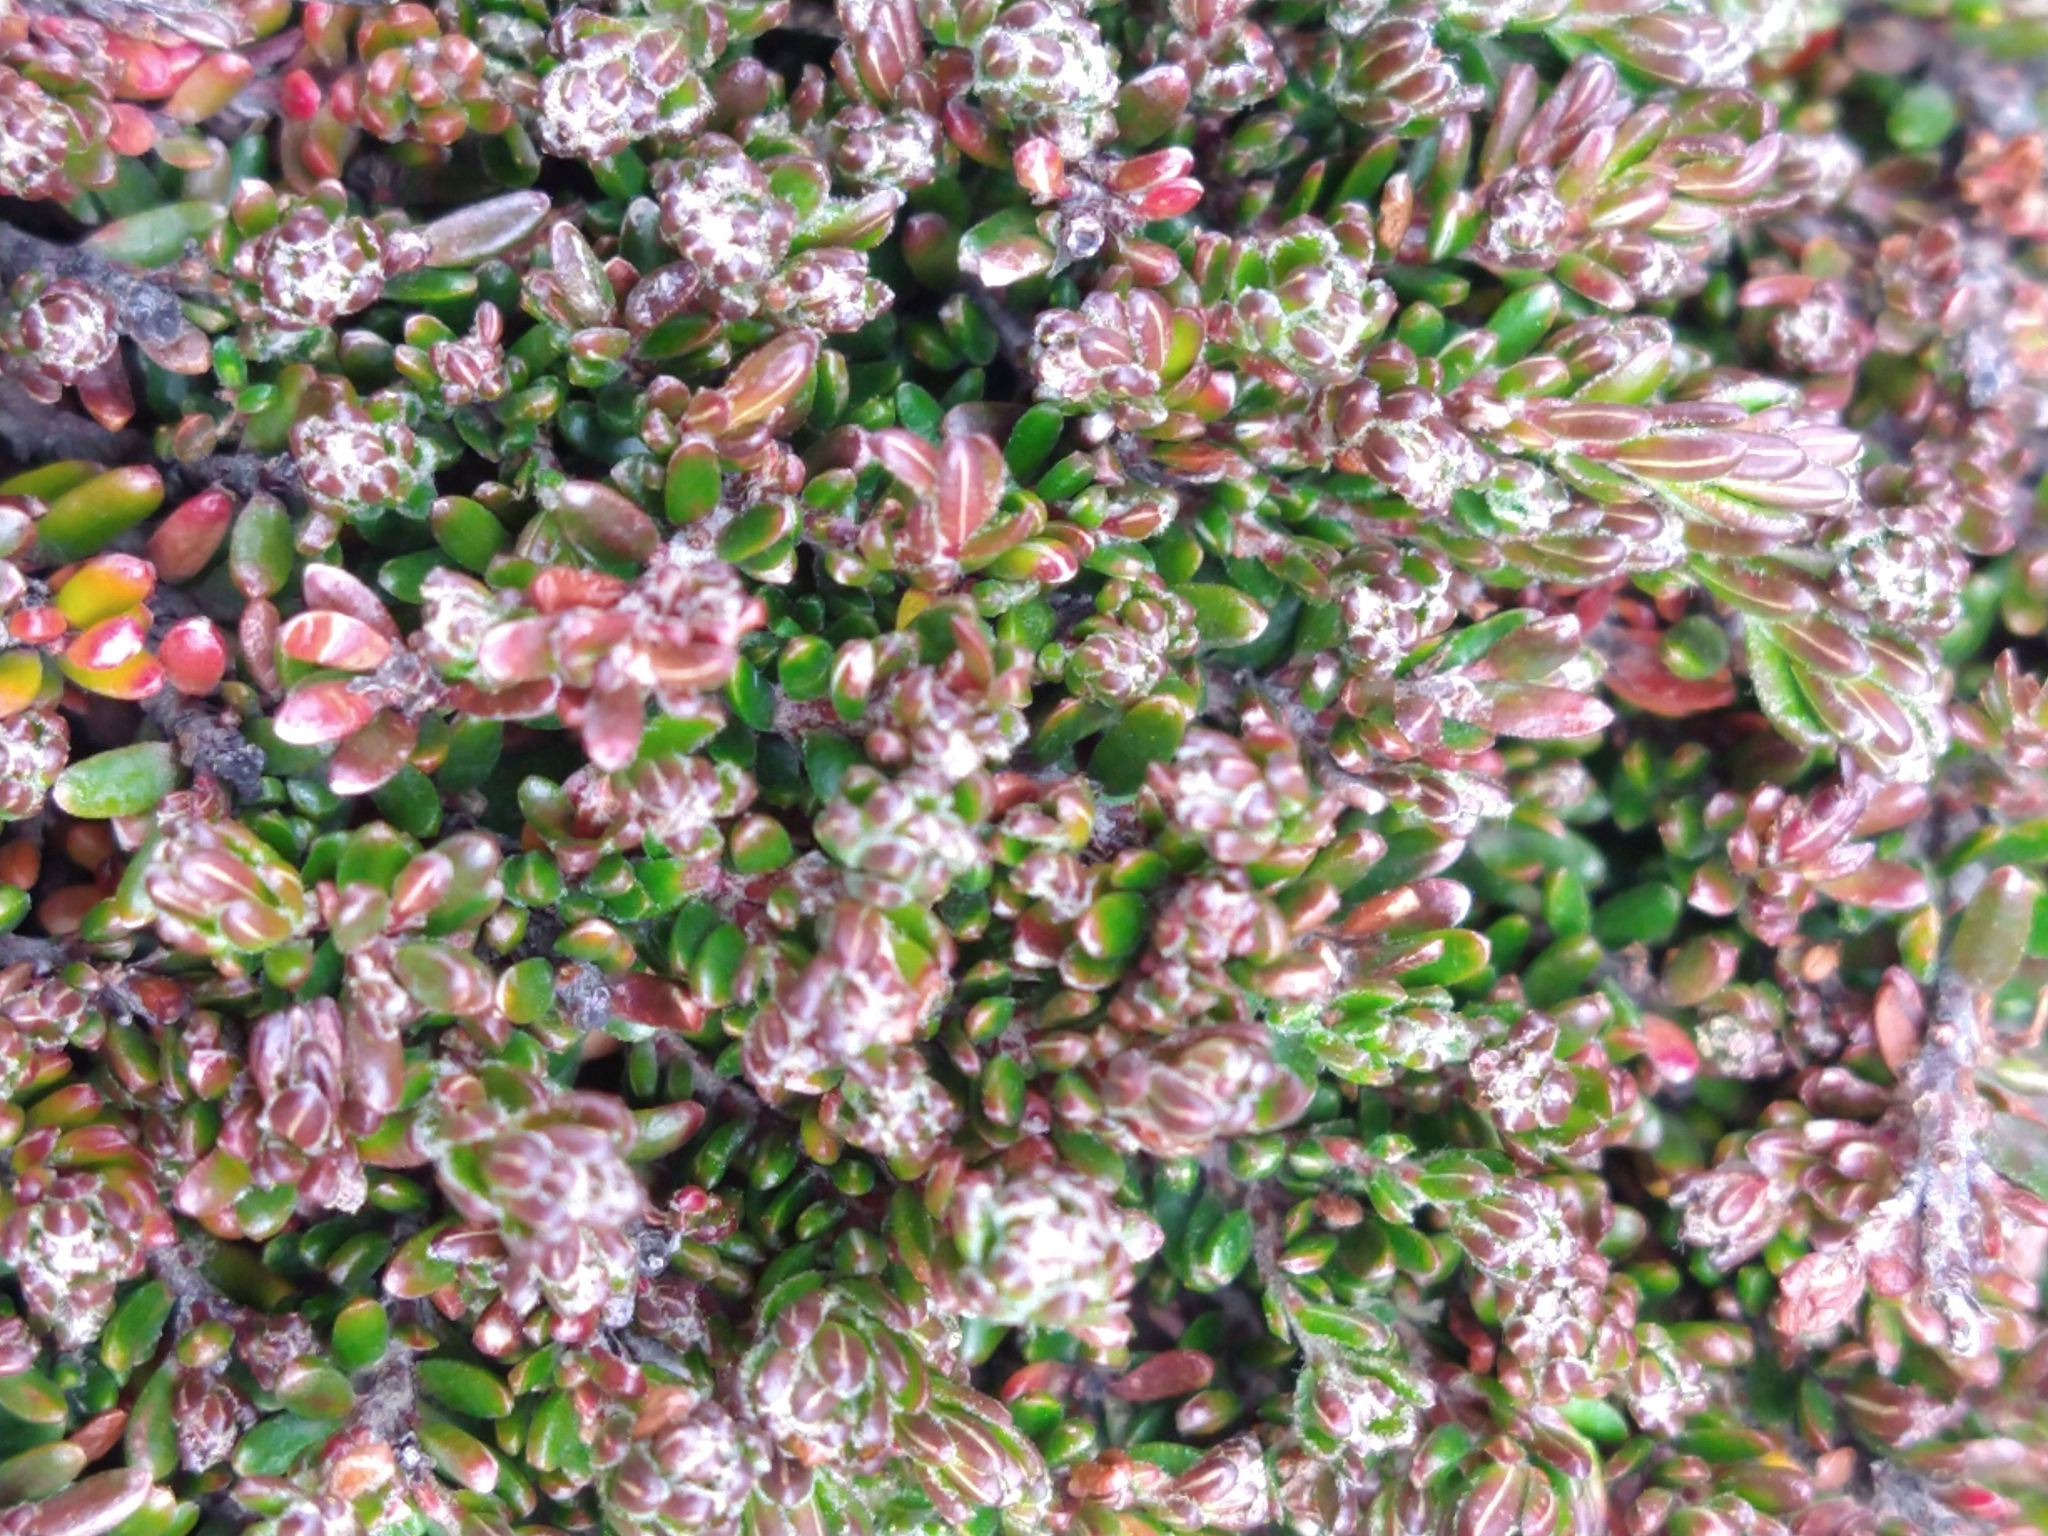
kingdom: Plantae
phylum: Tracheophyta
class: Magnoliopsida
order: Ericales
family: Ericaceae
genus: Empetrum
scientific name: Empetrum rubrum
